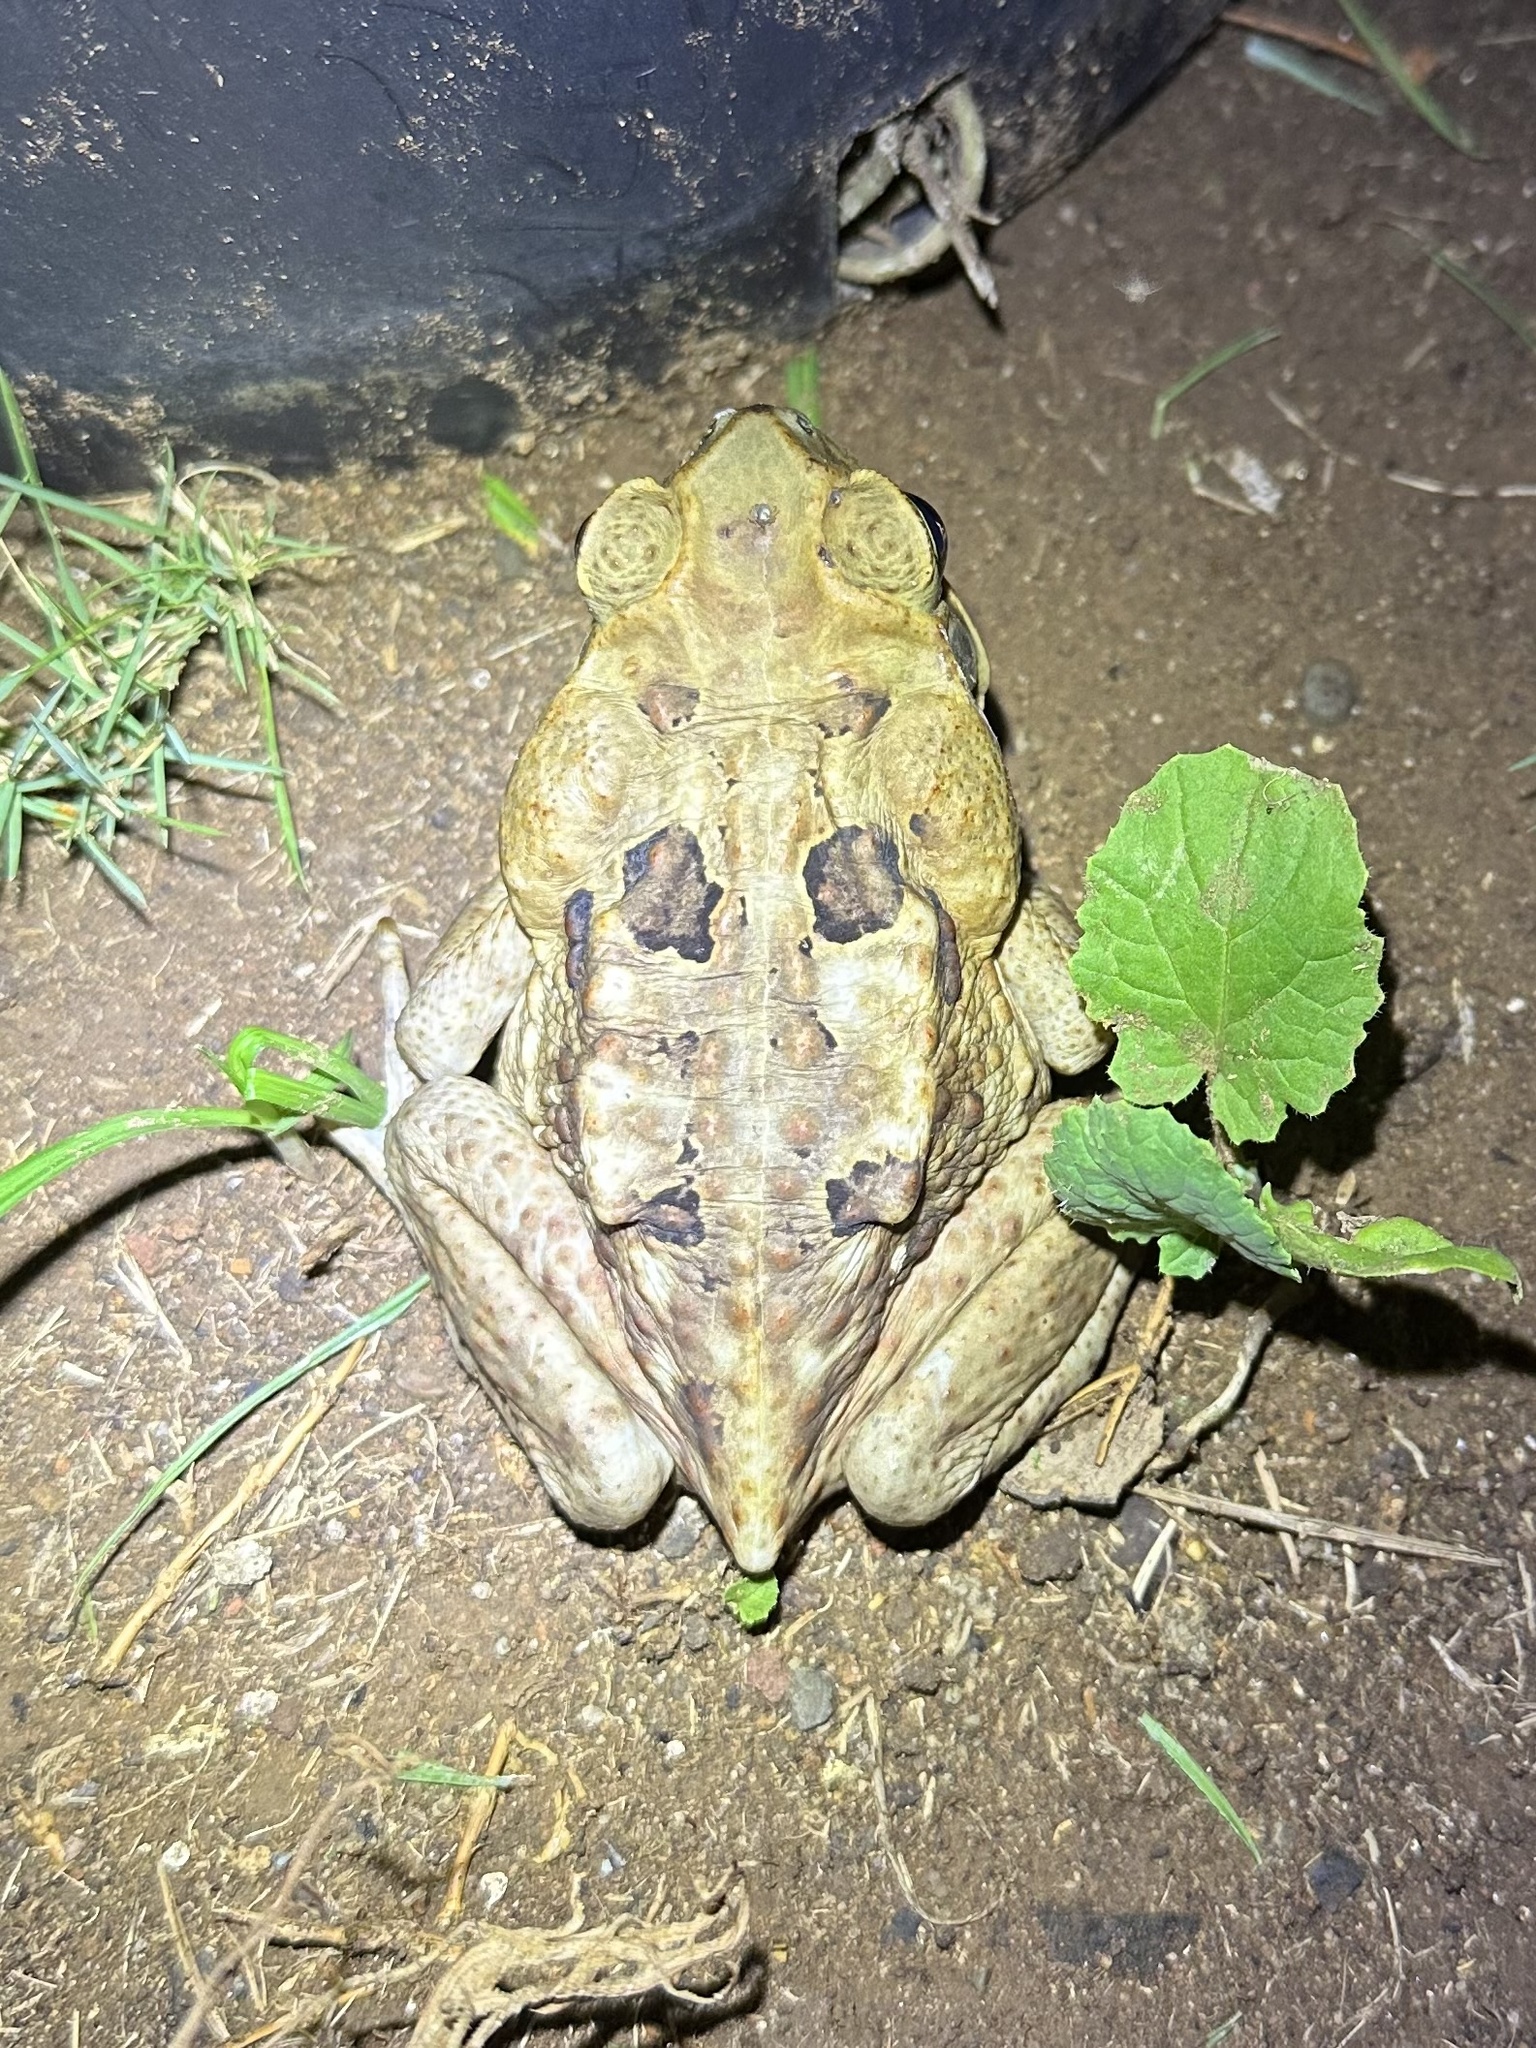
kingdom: Animalia
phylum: Chordata
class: Amphibia
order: Anura
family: Bufonidae
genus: Rhinella
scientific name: Rhinella horribilis
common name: Mesoamerican cane toad
